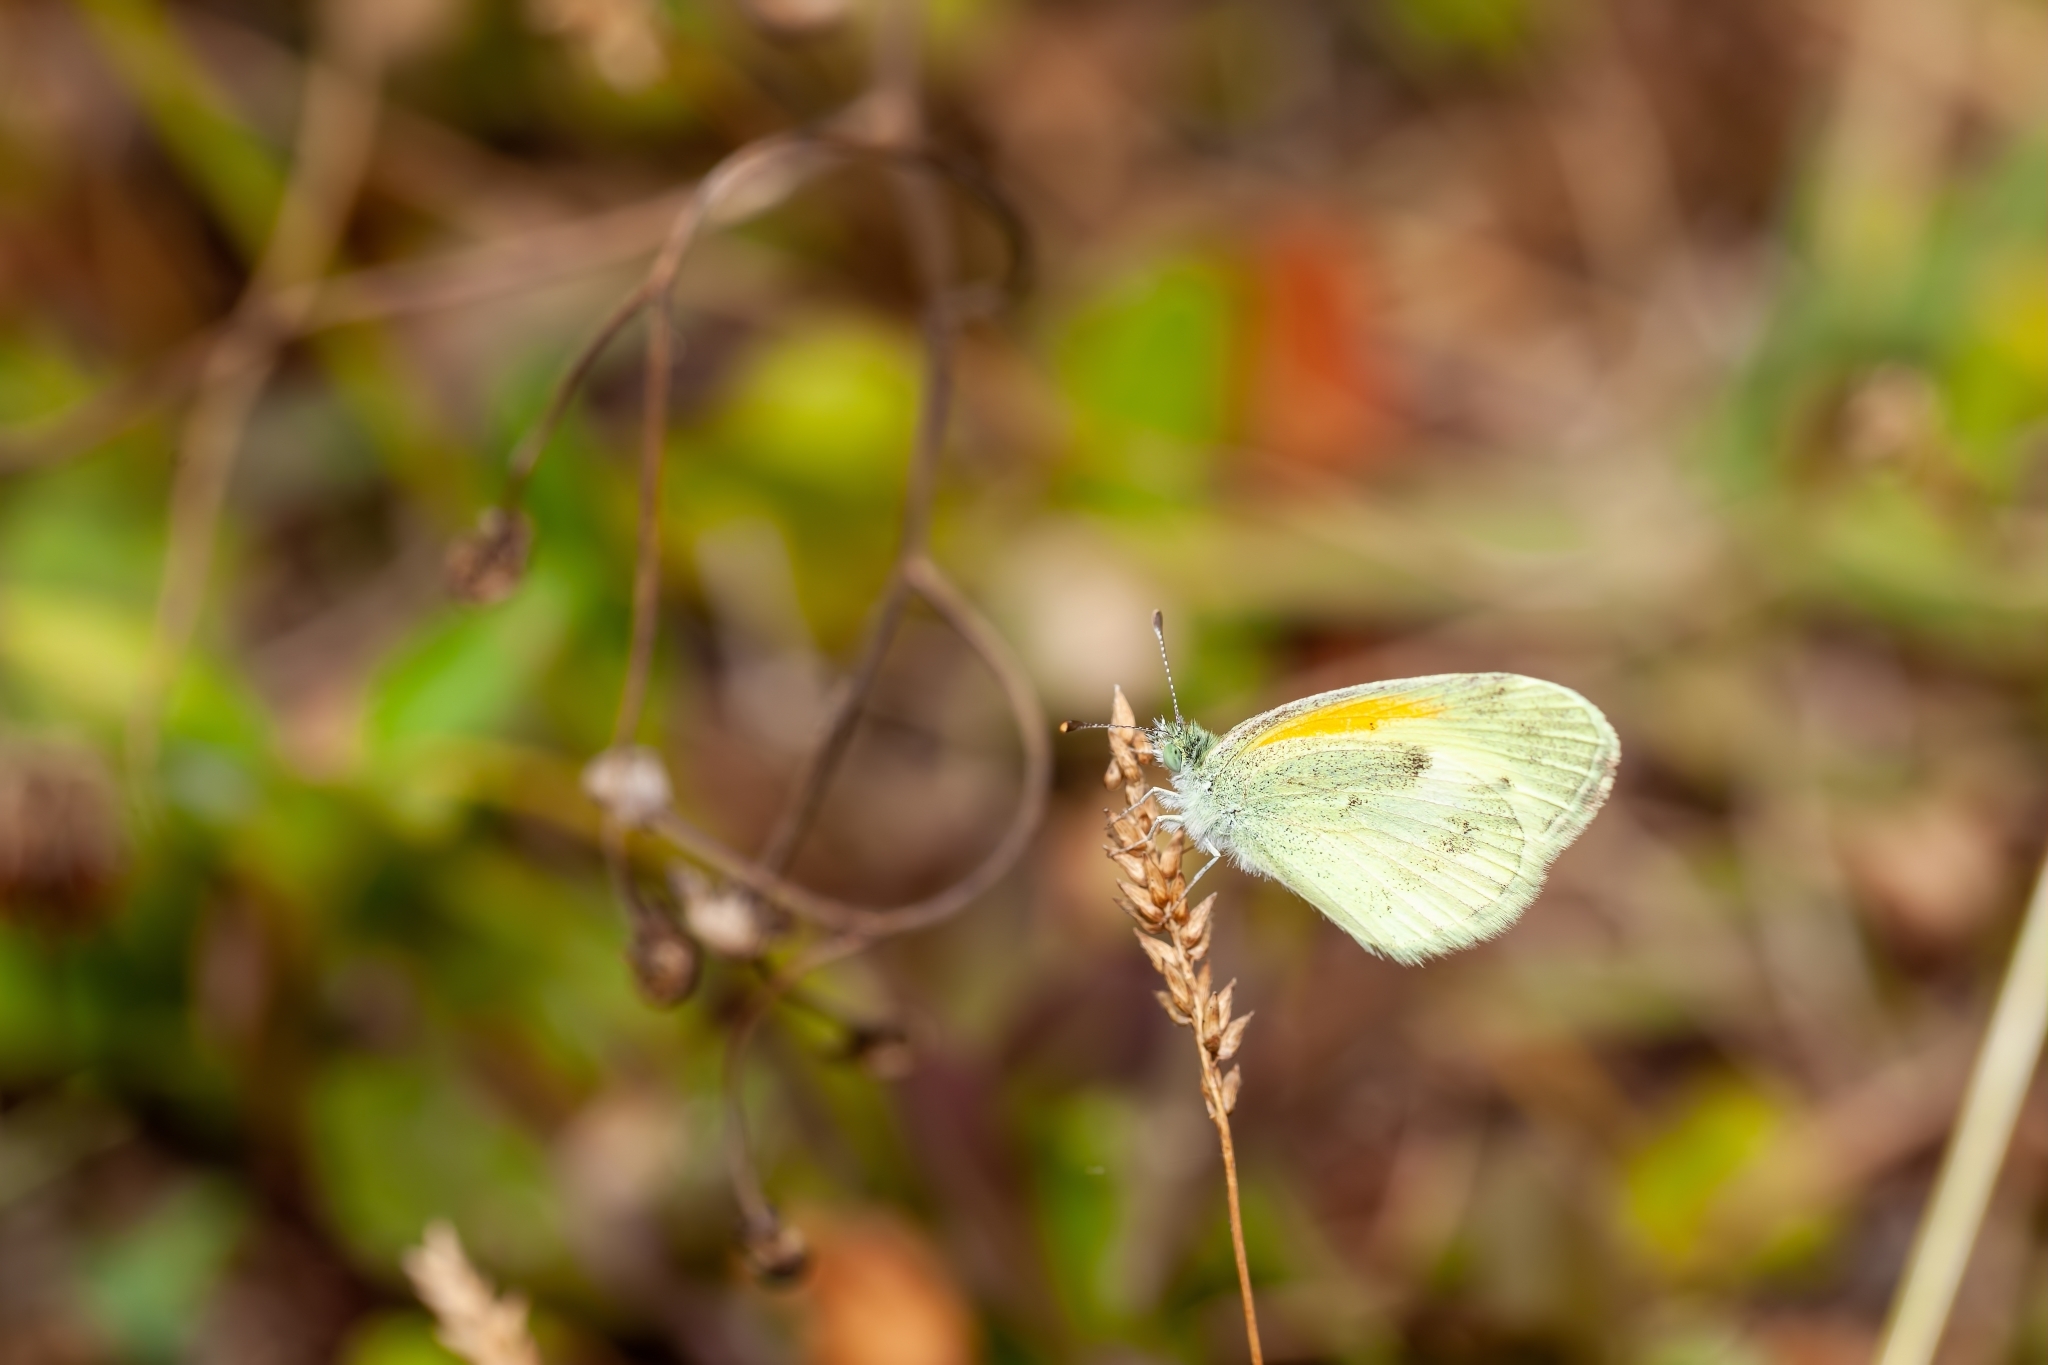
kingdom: Animalia
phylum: Arthropoda
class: Insecta
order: Lepidoptera
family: Pieridae
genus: Nathalis
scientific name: Nathalis iole
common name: Dainty sulphur
